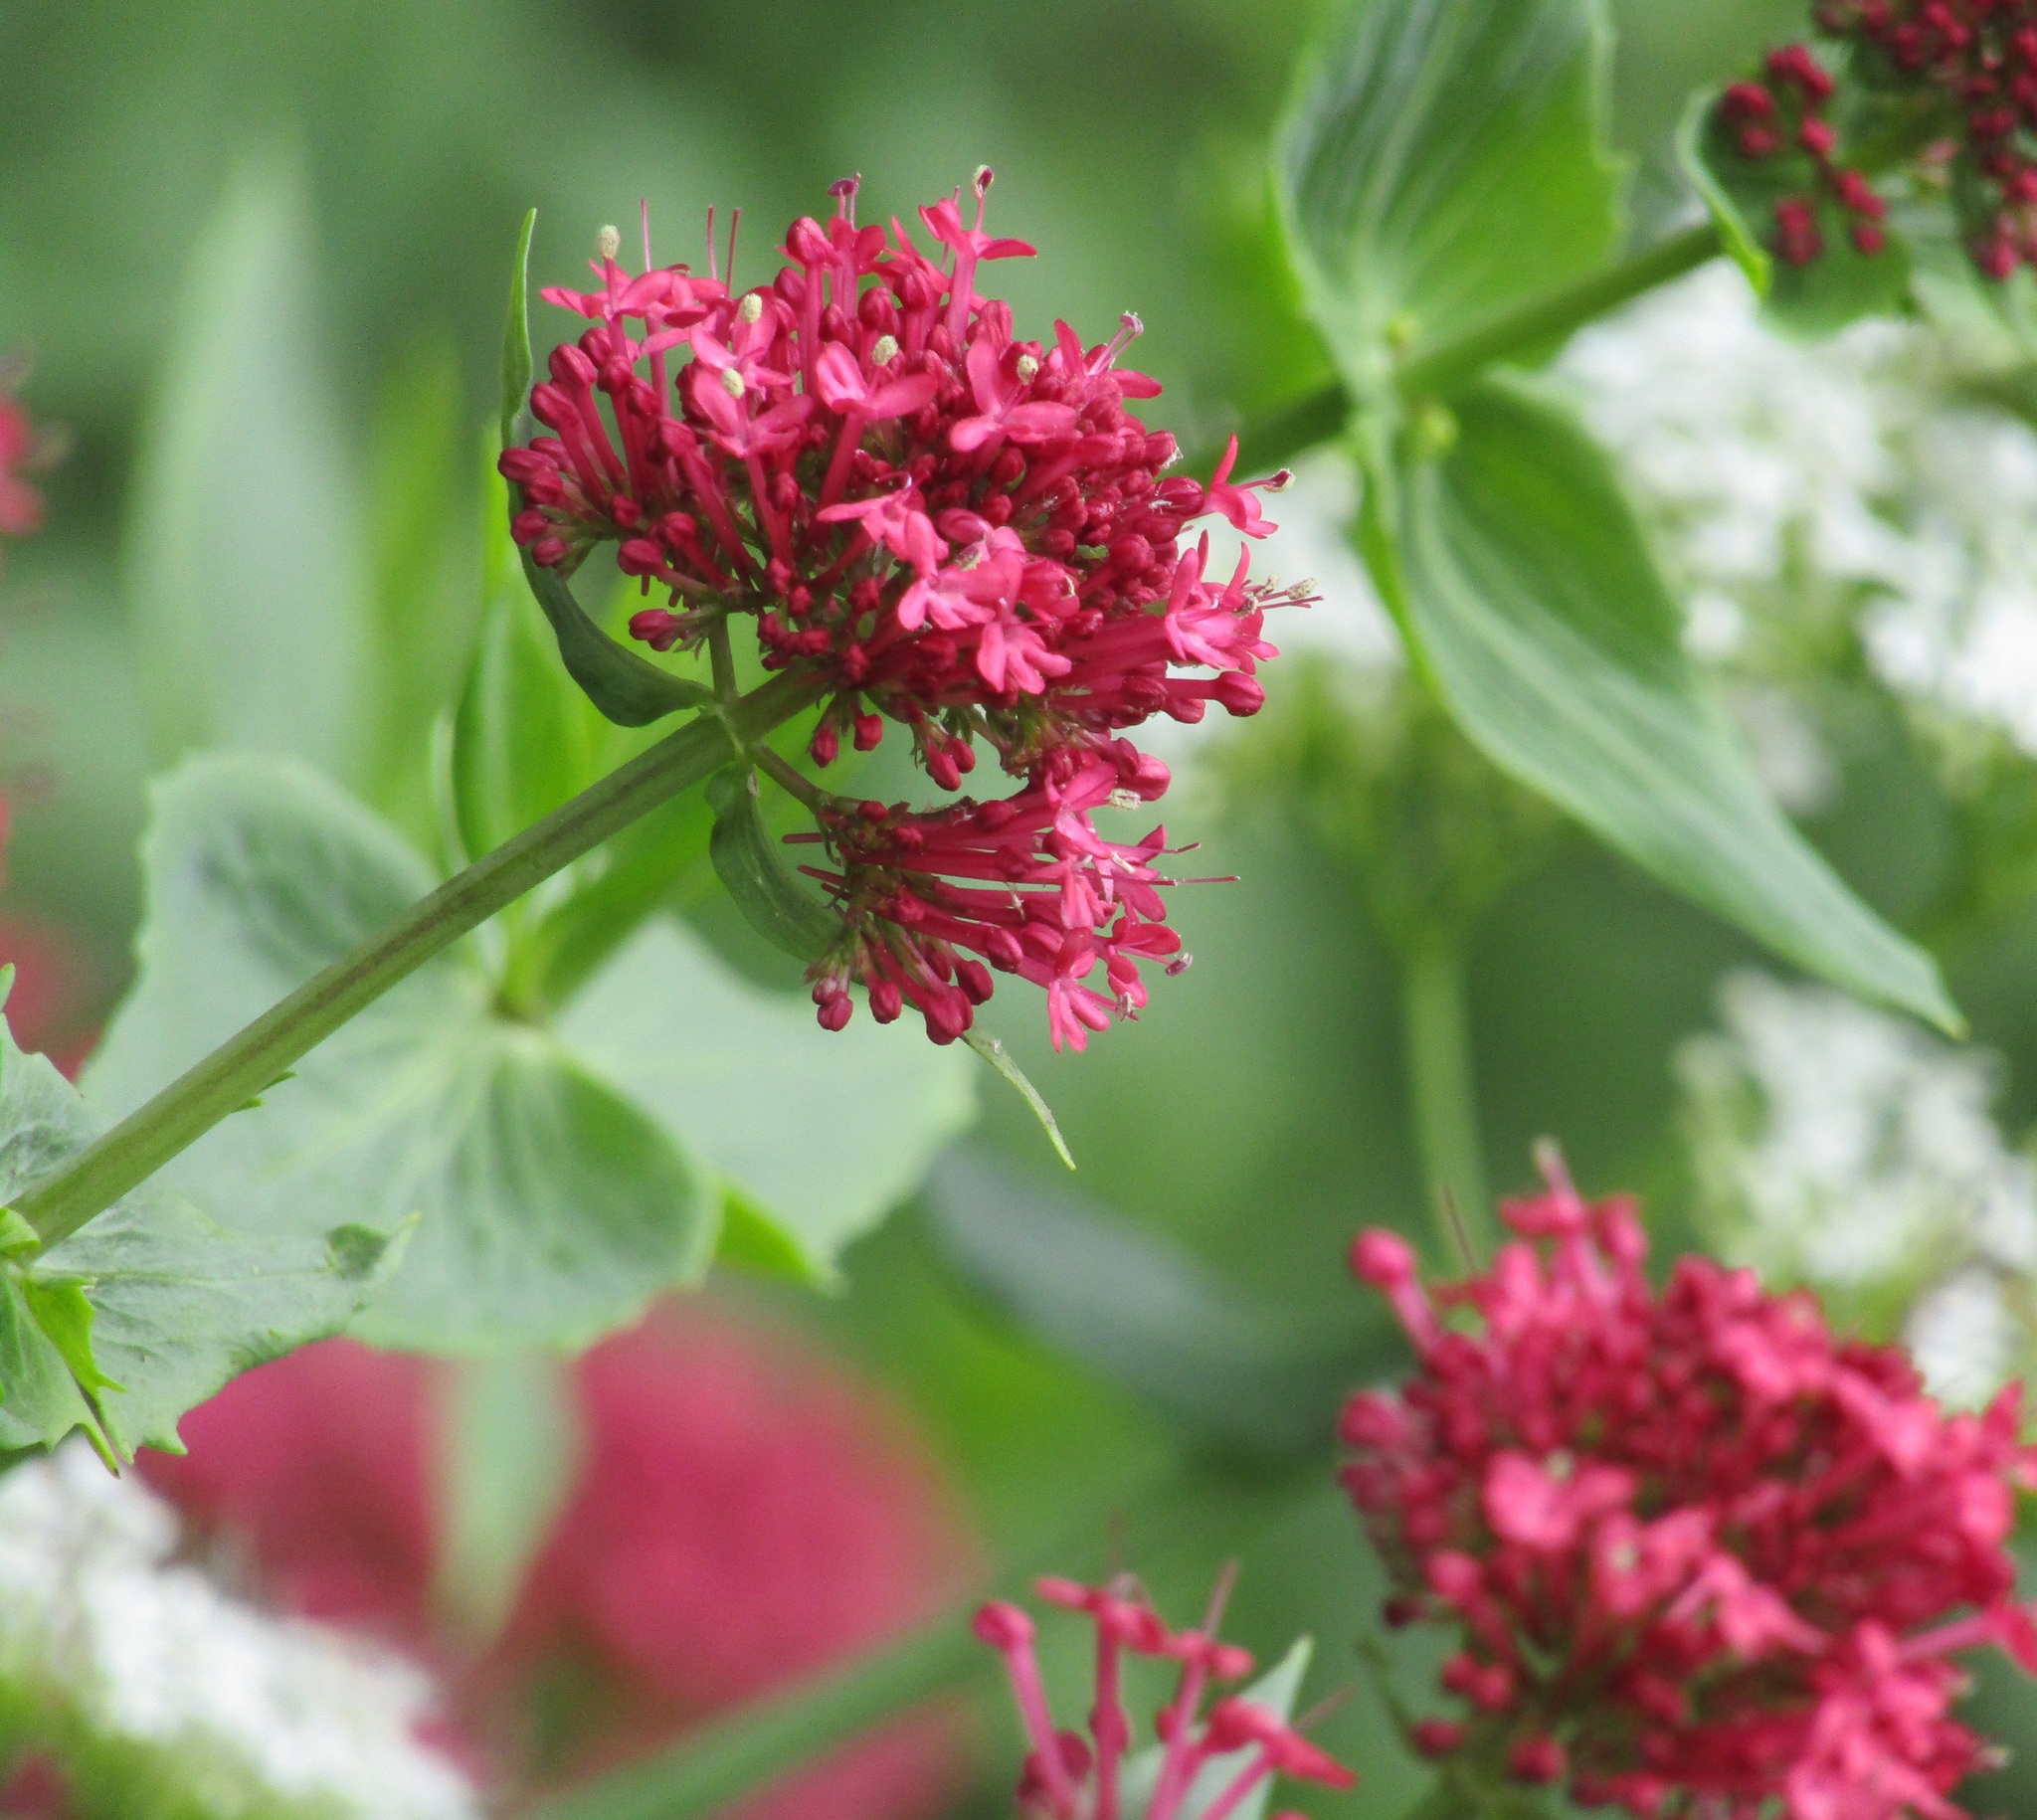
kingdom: Plantae
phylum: Tracheophyta
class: Magnoliopsida
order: Dipsacales
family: Caprifoliaceae
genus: Centranthus
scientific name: Centranthus ruber
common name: Red valerian
